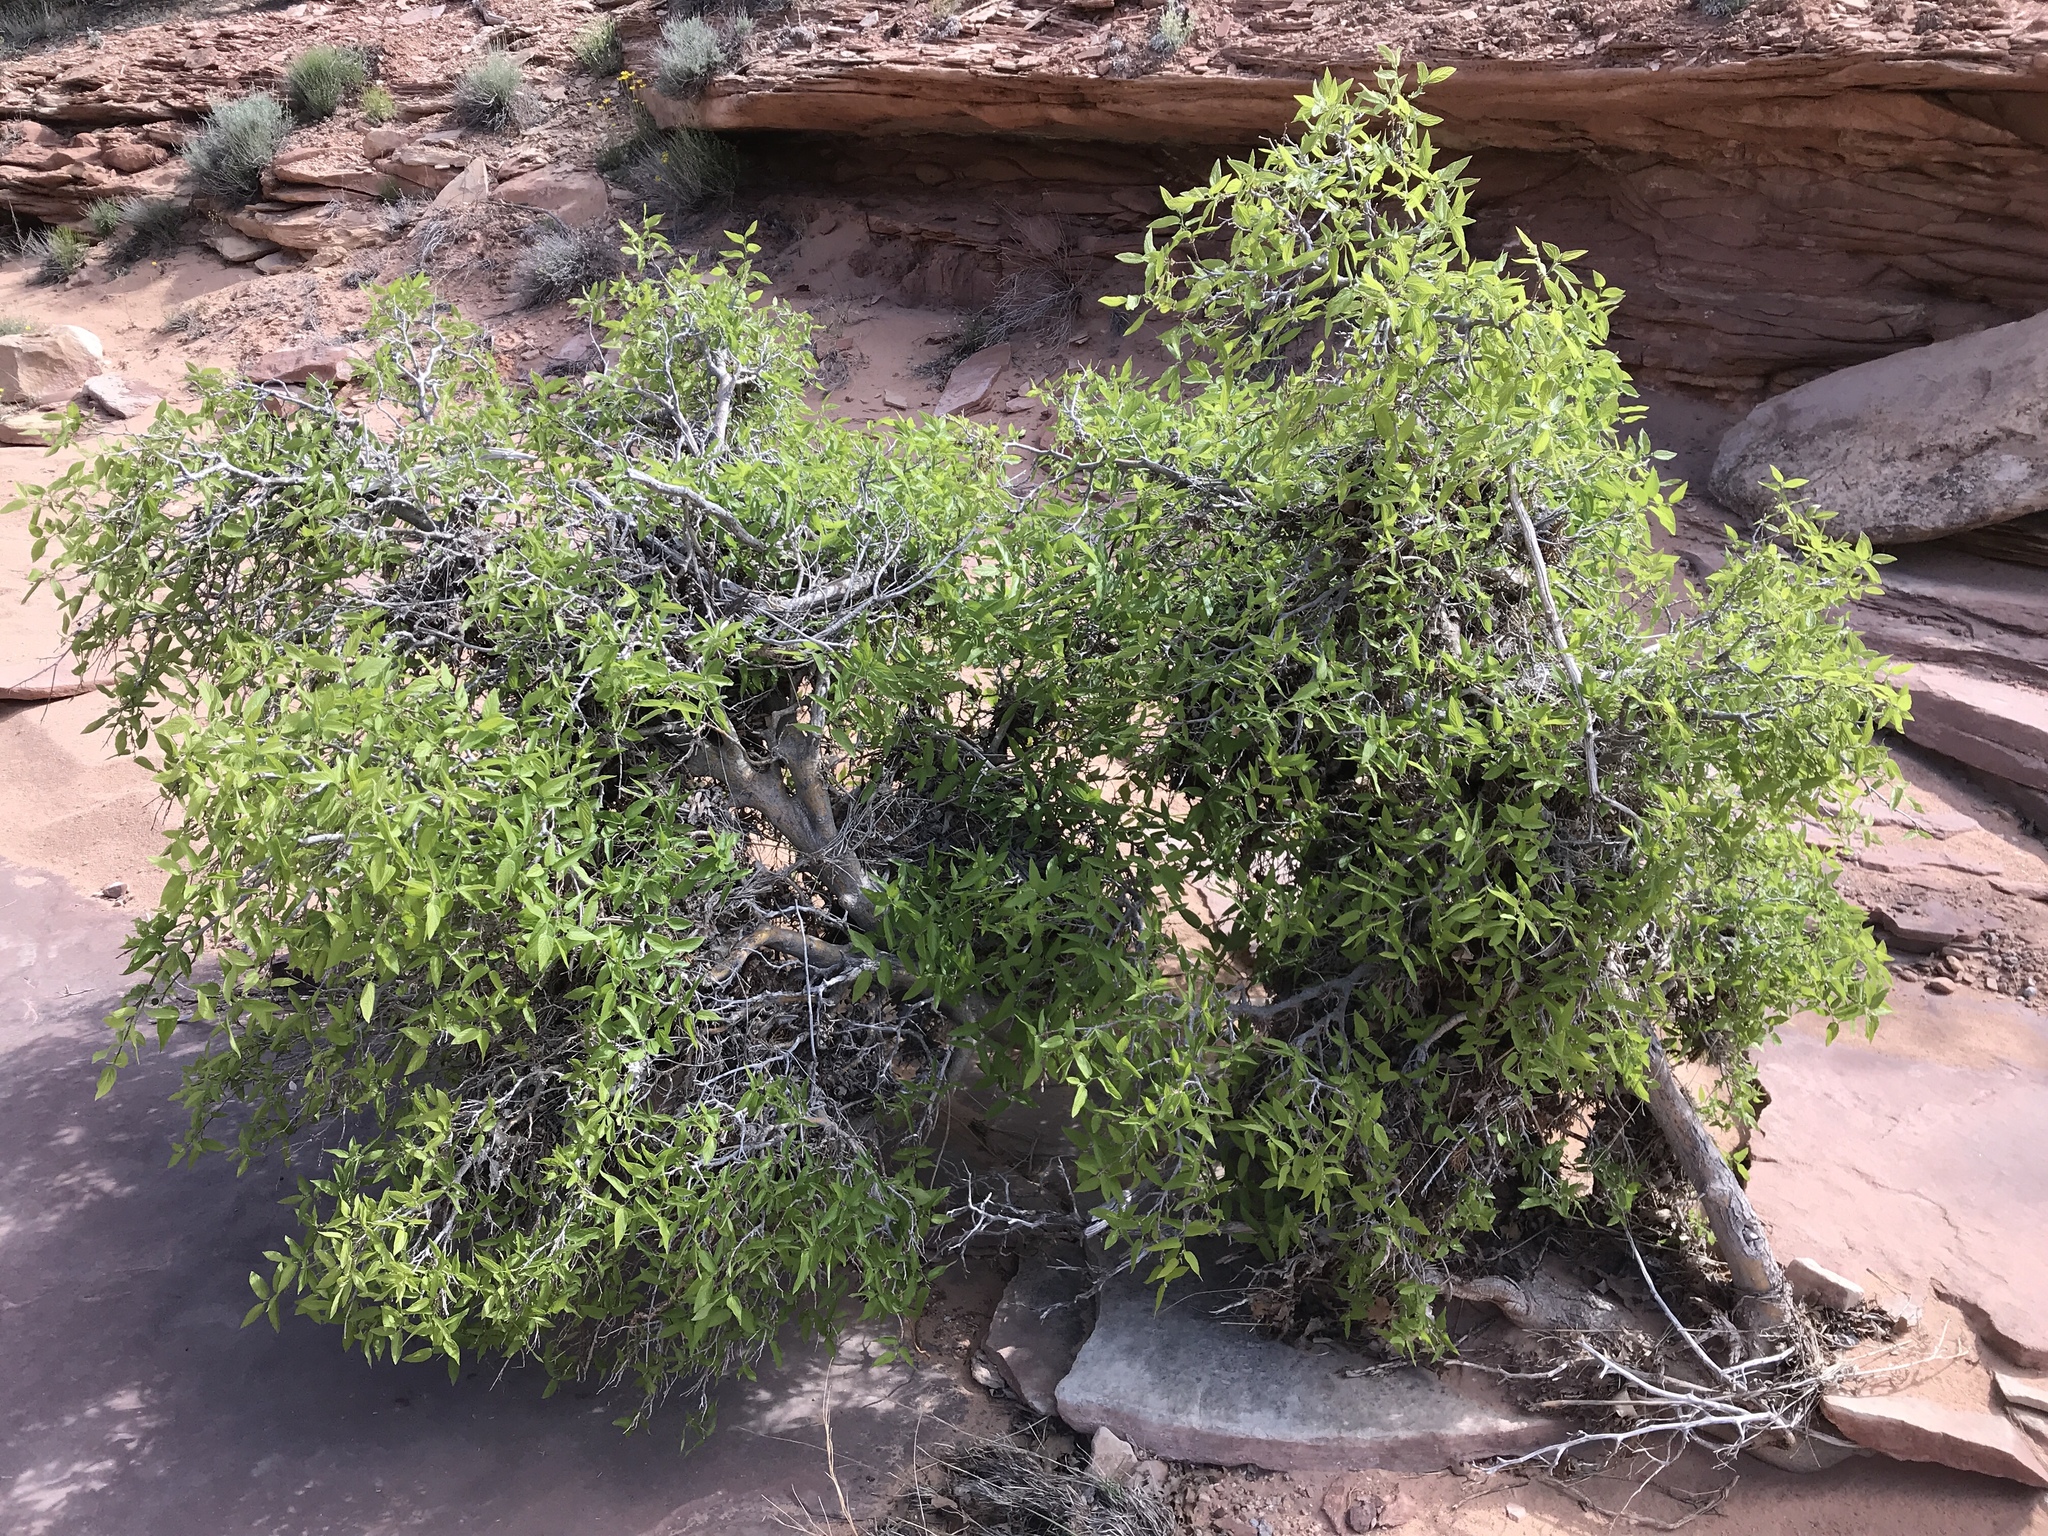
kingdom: Plantae
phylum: Tracheophyta
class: Magnoliopsida
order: Rosales
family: Cannabaceae
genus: Celtis
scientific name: Celtis reticulata
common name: Netleaf hackberry
